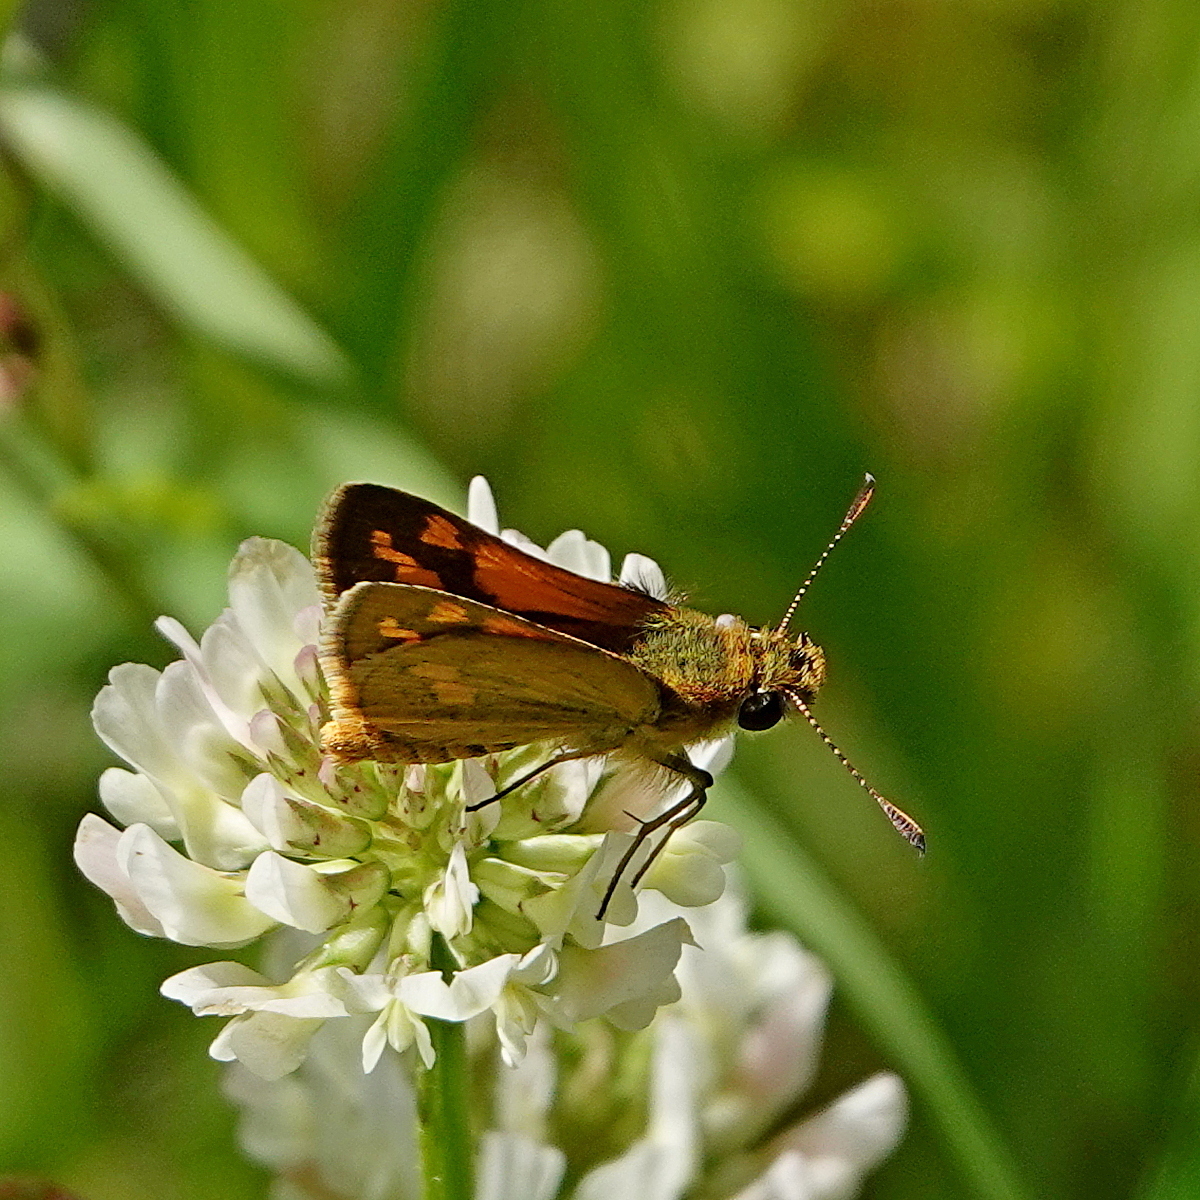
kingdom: Animalia
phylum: Arthropoda
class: Insecta
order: Lepidoptera
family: Hesperiidae
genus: Ocybadistes
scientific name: Ocybadistes flavovittata
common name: Narrow-brand grass-dart
